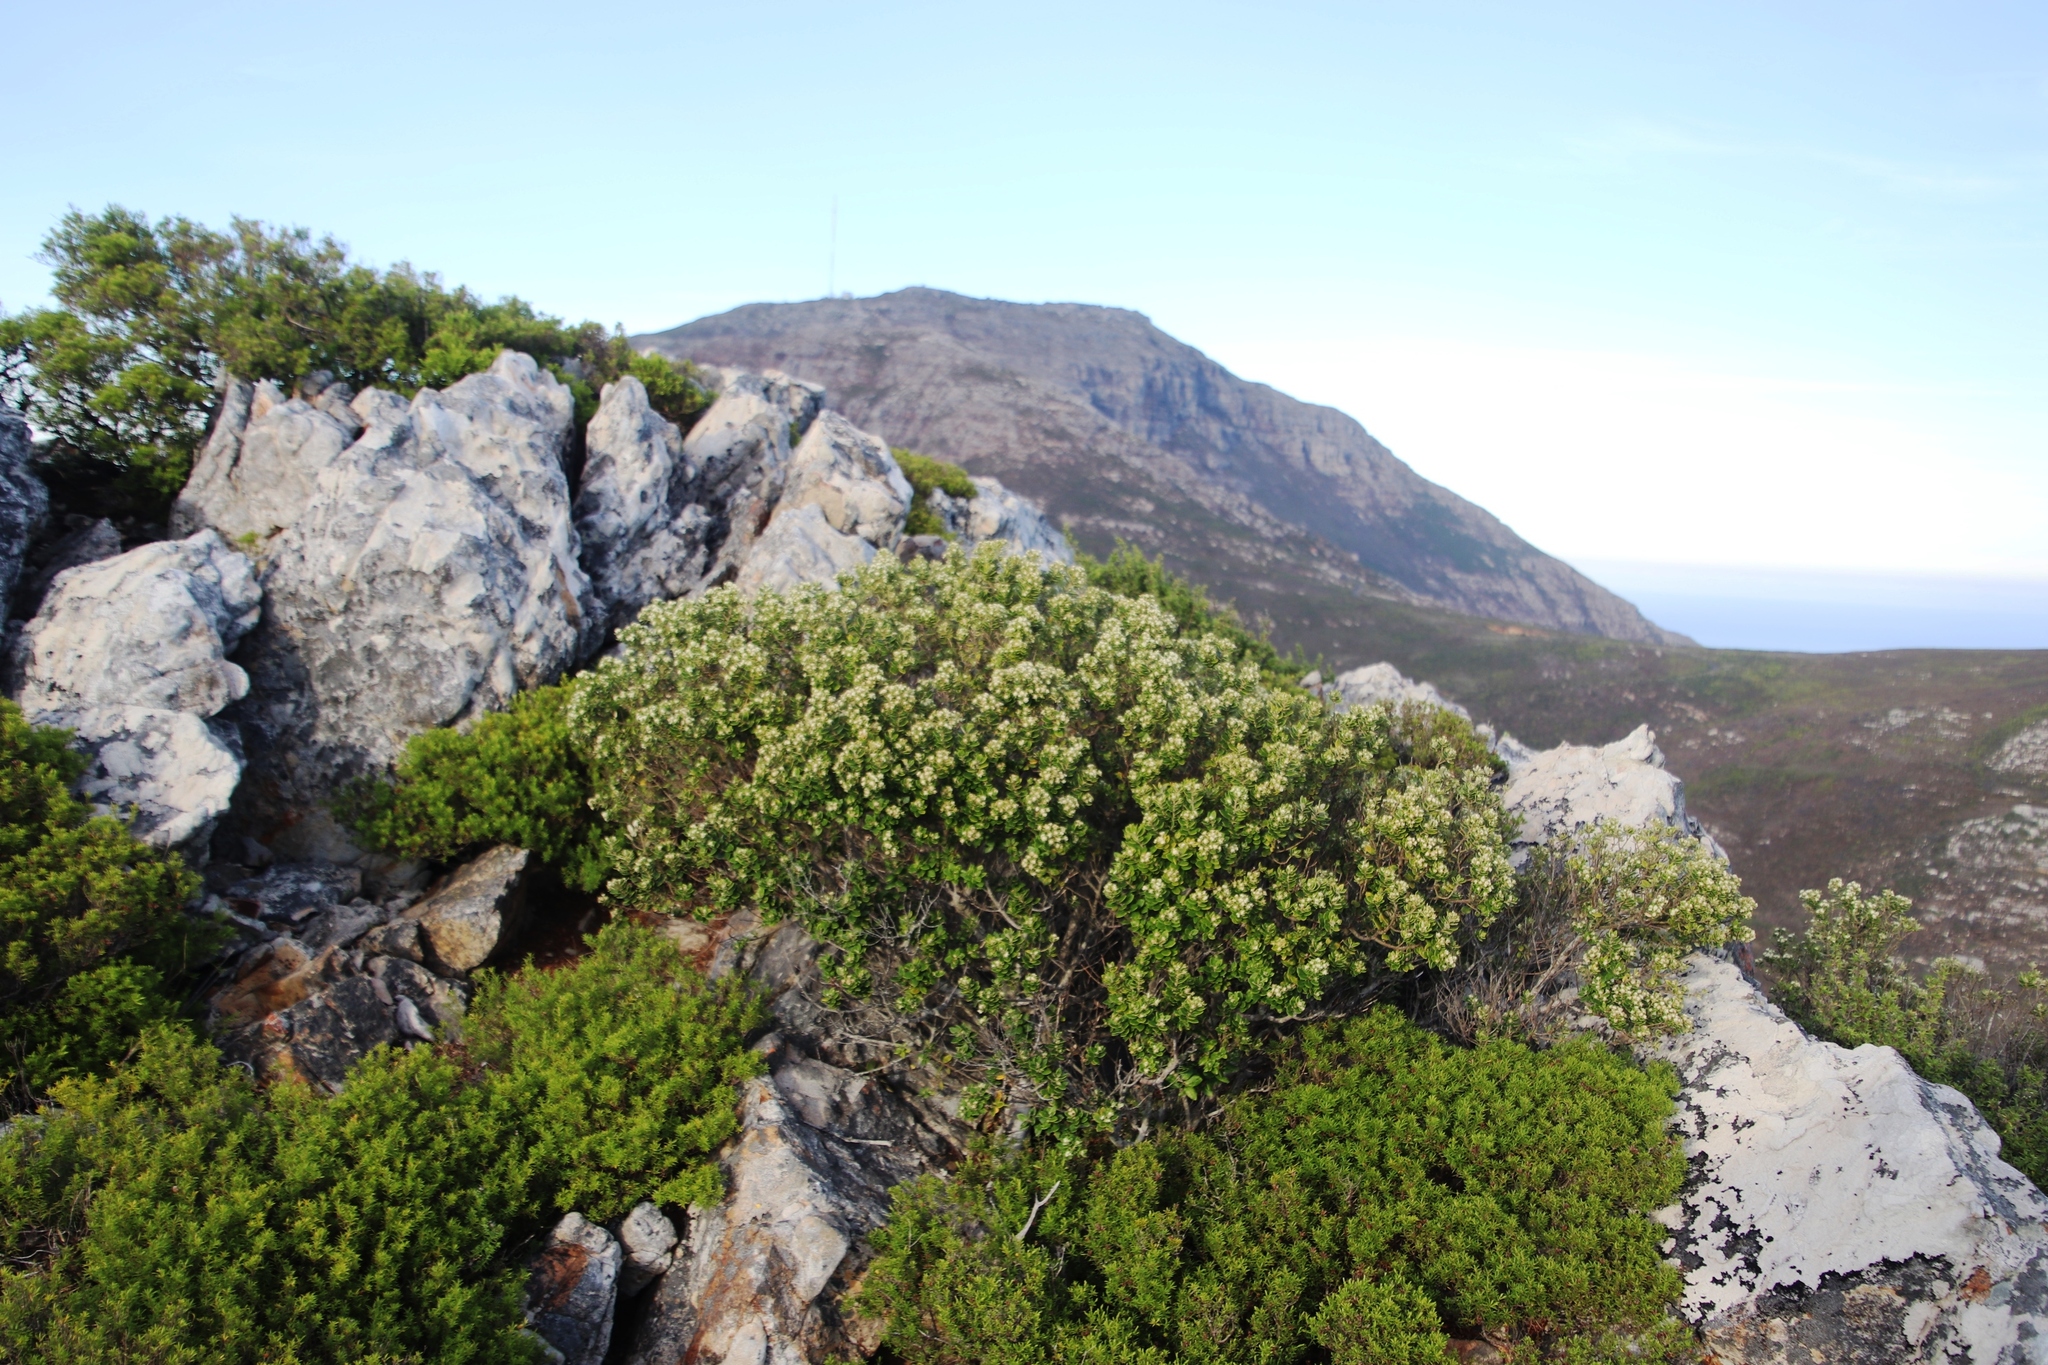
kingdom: Plantae
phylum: Tracheophyta
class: Magnoliopsida
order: Rosales
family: Rhamnaceae
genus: Phylica
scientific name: Phylica buxifolia
